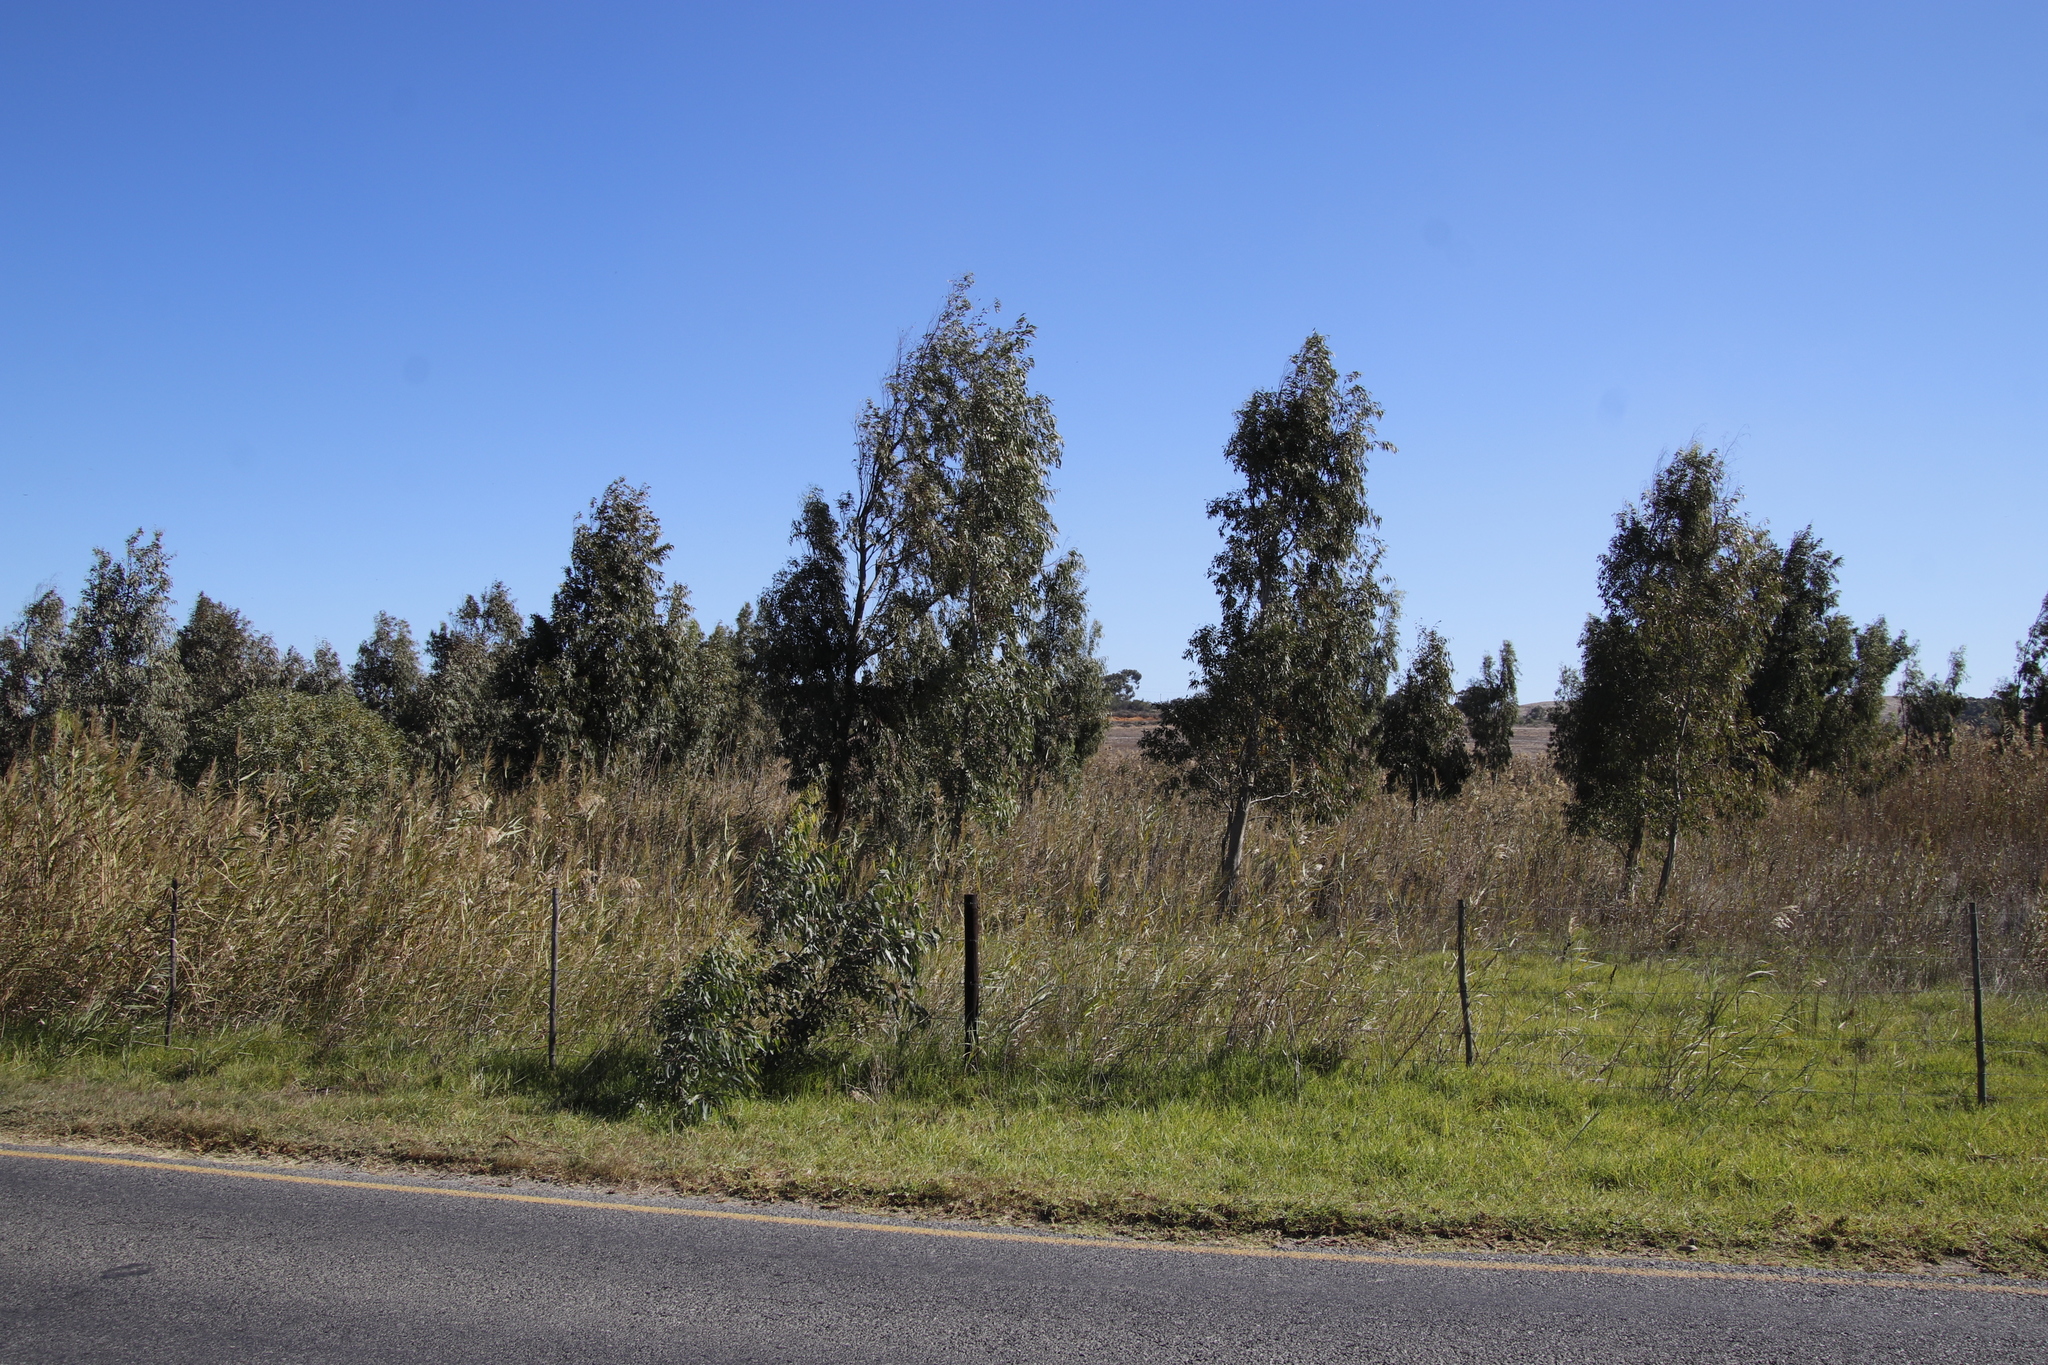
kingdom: Plantae
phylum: Tracheophyta
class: Magnoliopsida
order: Myrtales
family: Myrtaceae
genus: Eucalyptus
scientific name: Eucalyptus camaldulensis
